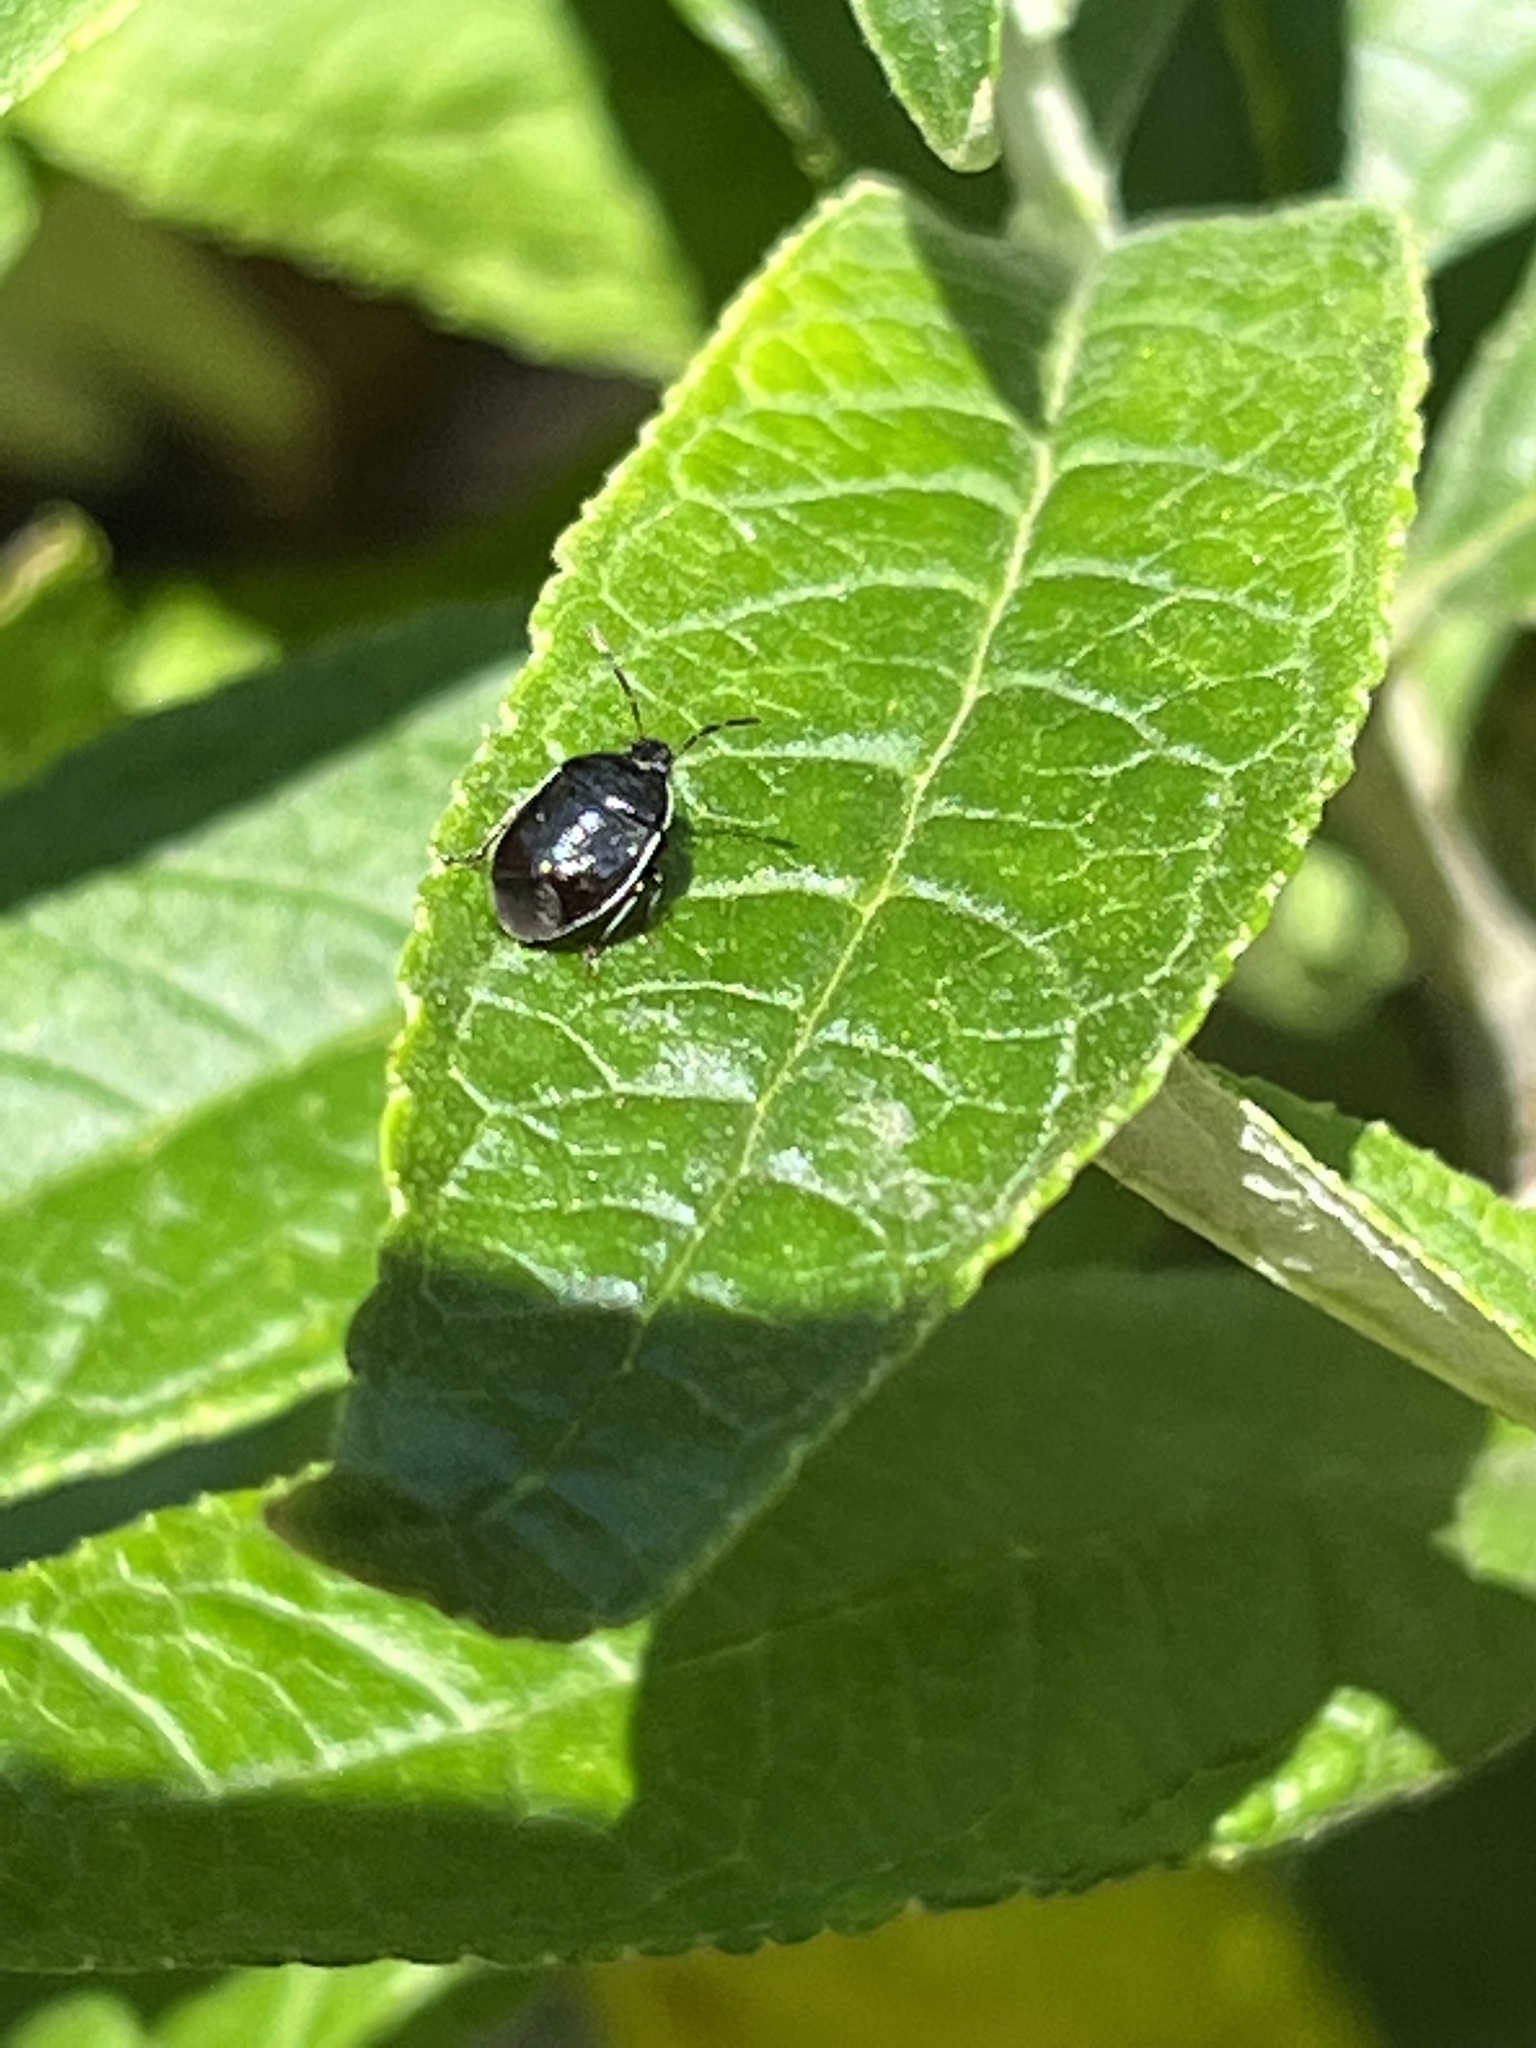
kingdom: Animalia
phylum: Arthropoda
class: Insecta
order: Hemiptera
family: Cydnidae
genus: Sehirus
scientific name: Sehirus cinctus
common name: White-margined burrower bug
